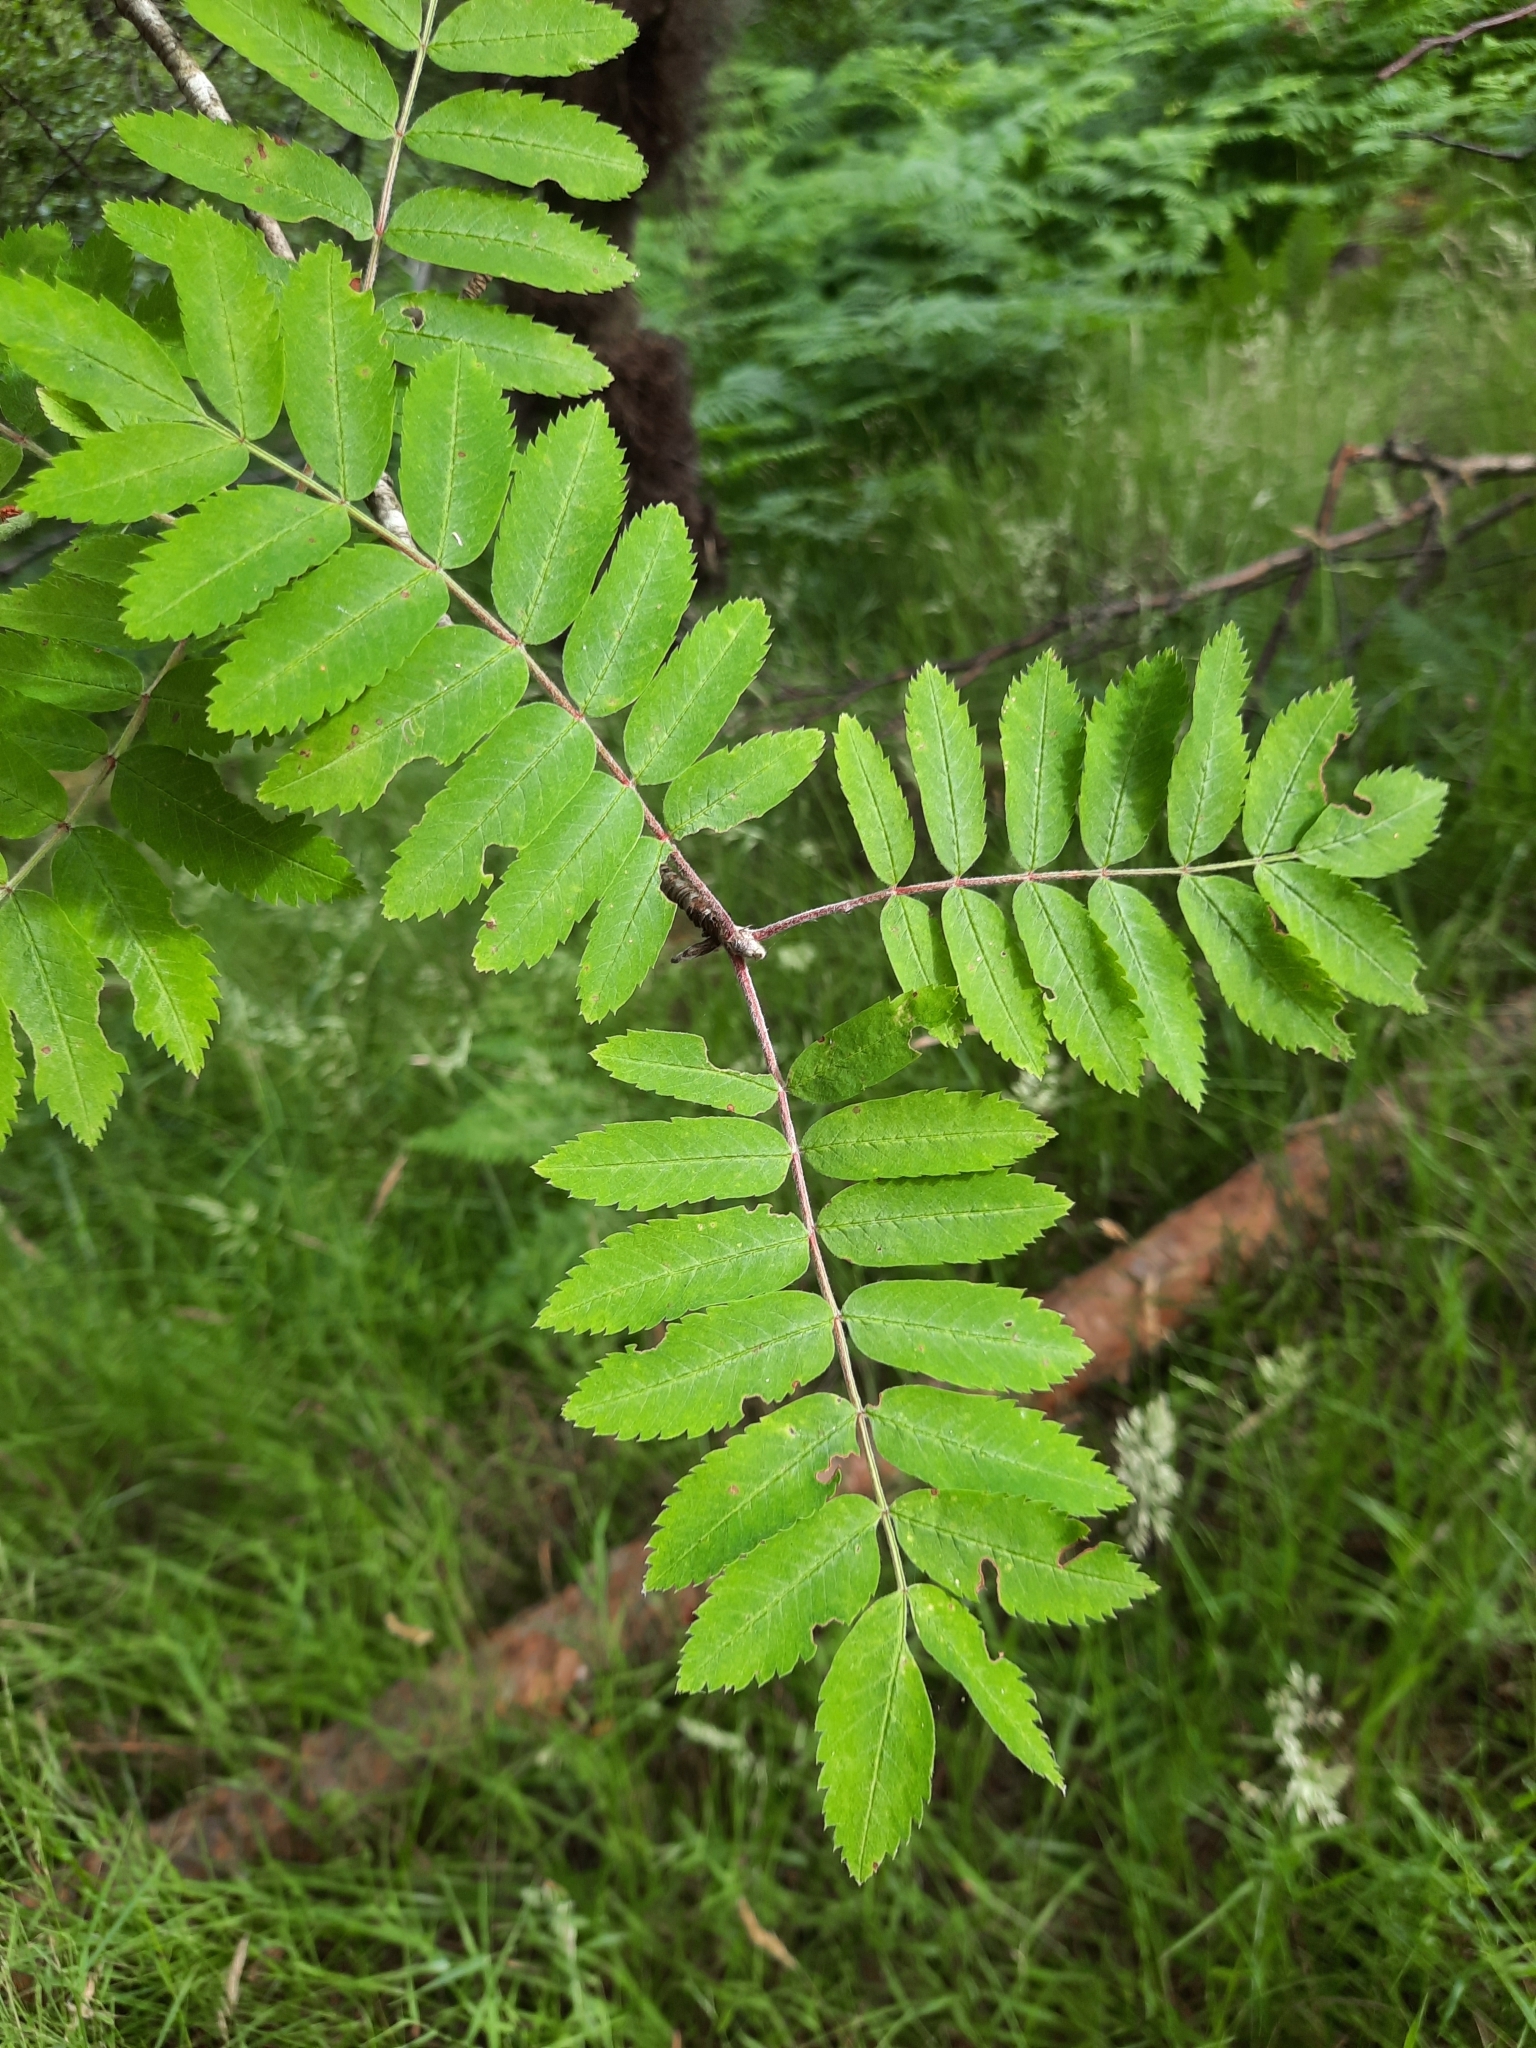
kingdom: Plantae
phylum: Tracheophyta
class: Magnoliopsida
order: Rosales
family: Rosaceae
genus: Sorbus
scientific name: Sorbus aucuparia
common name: Rowan
